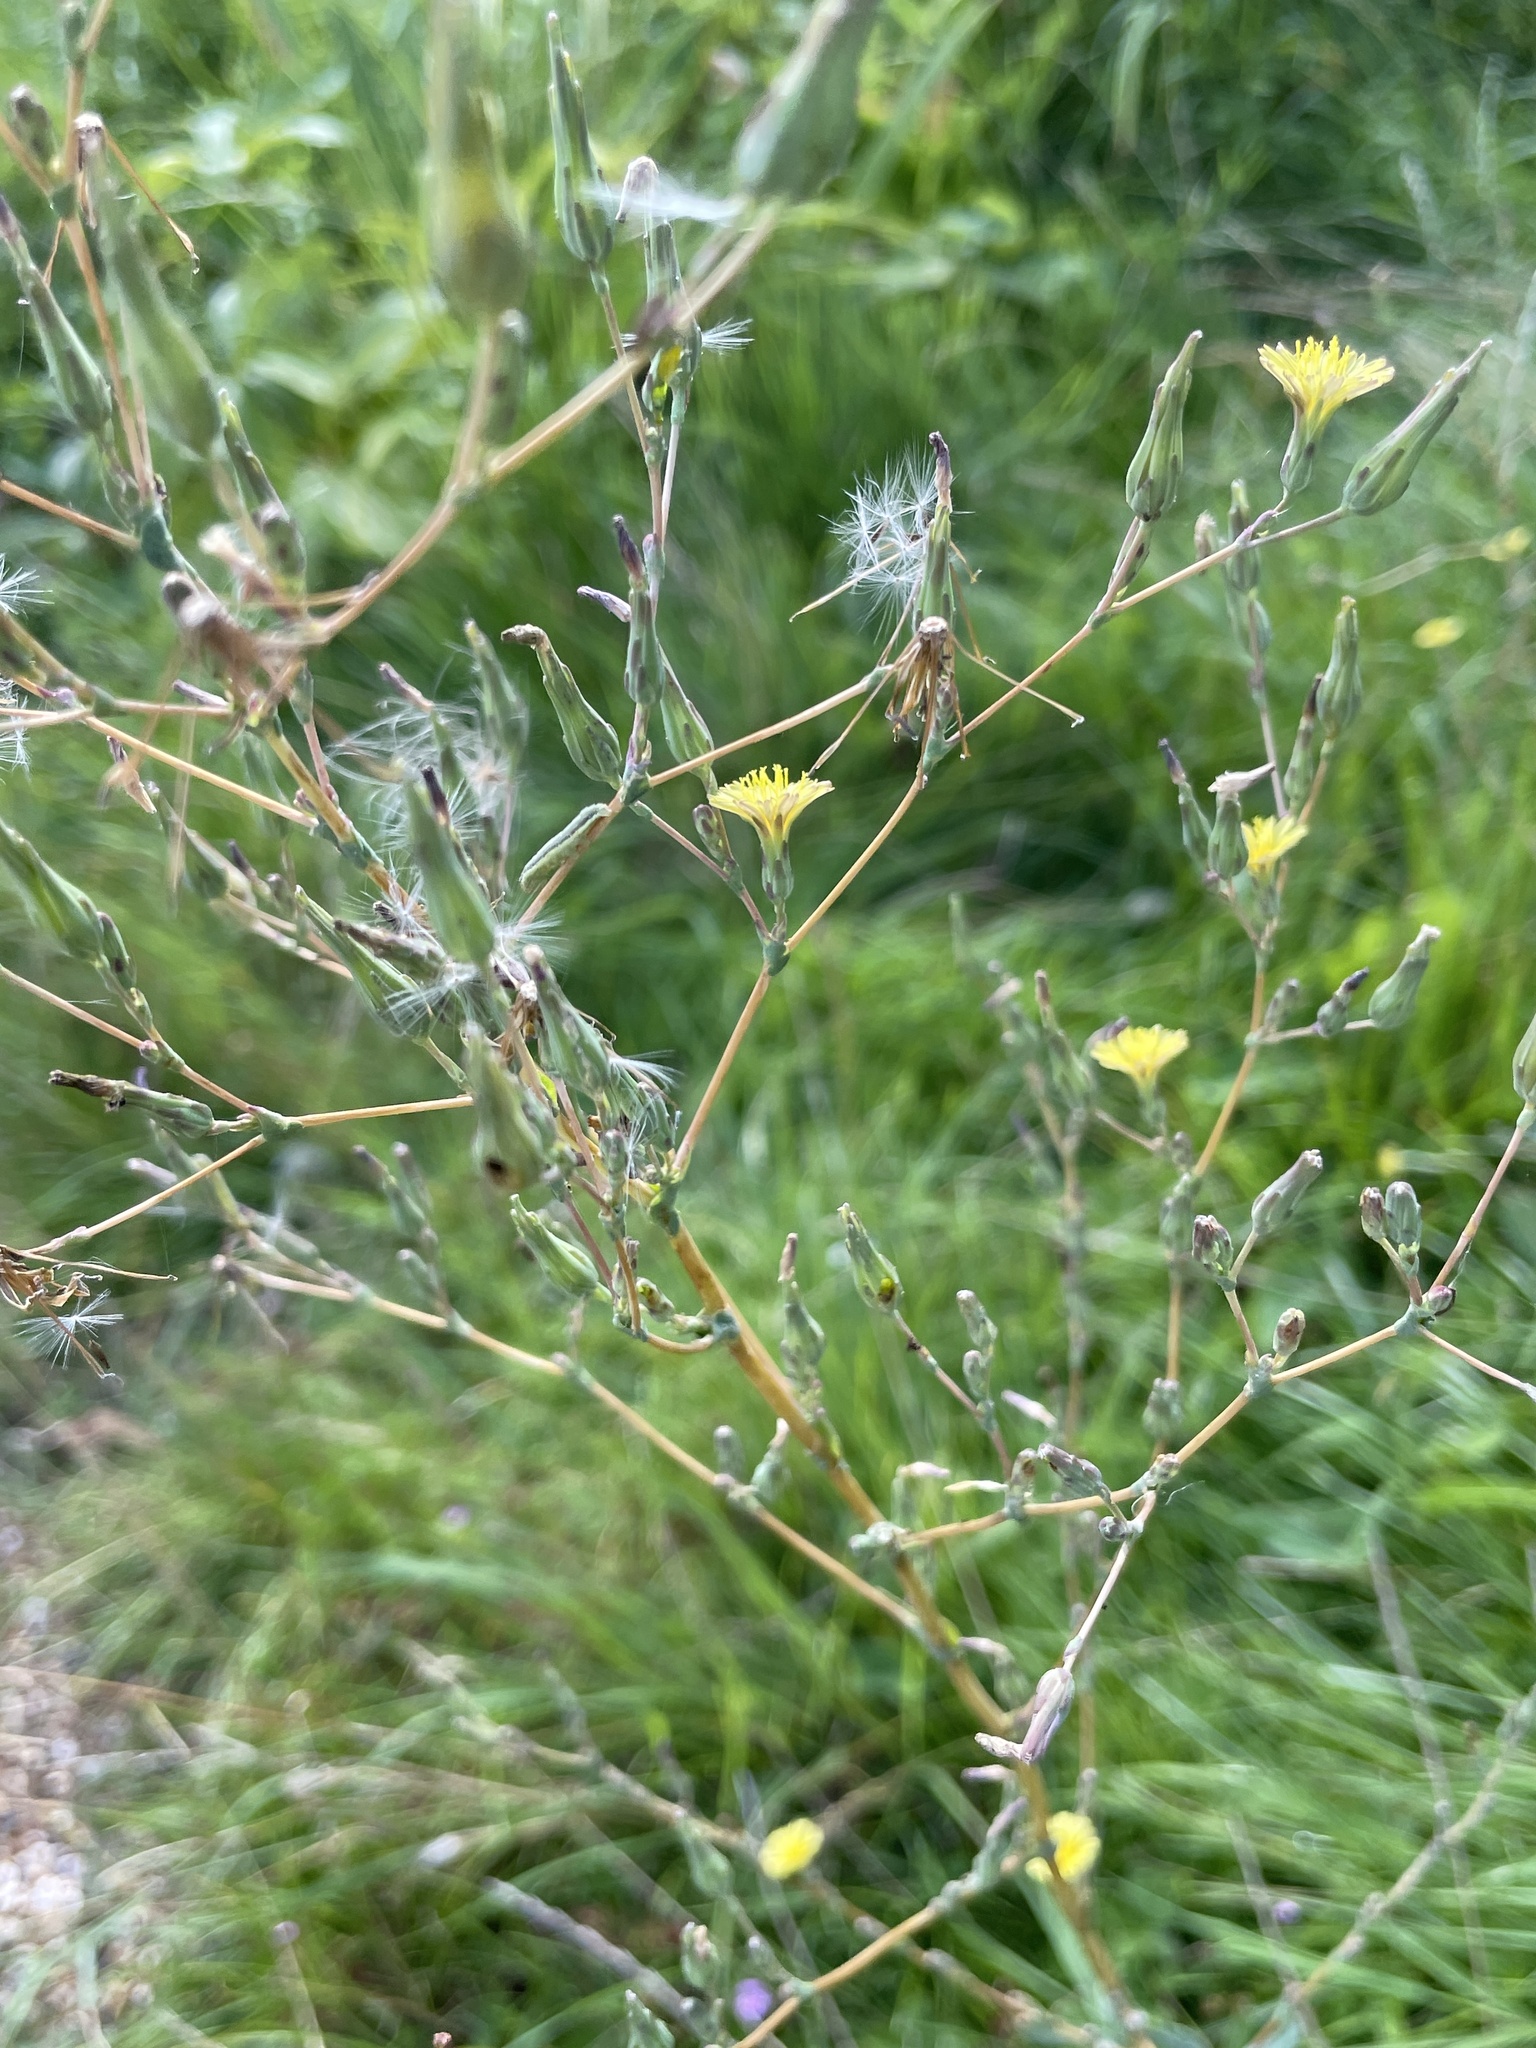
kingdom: Plantae
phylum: Tracheophyta
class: Magnoliopsida
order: Asterales
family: Asteraceae
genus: Lactuca
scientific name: Lactuca serriola
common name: Prickly lettuce
